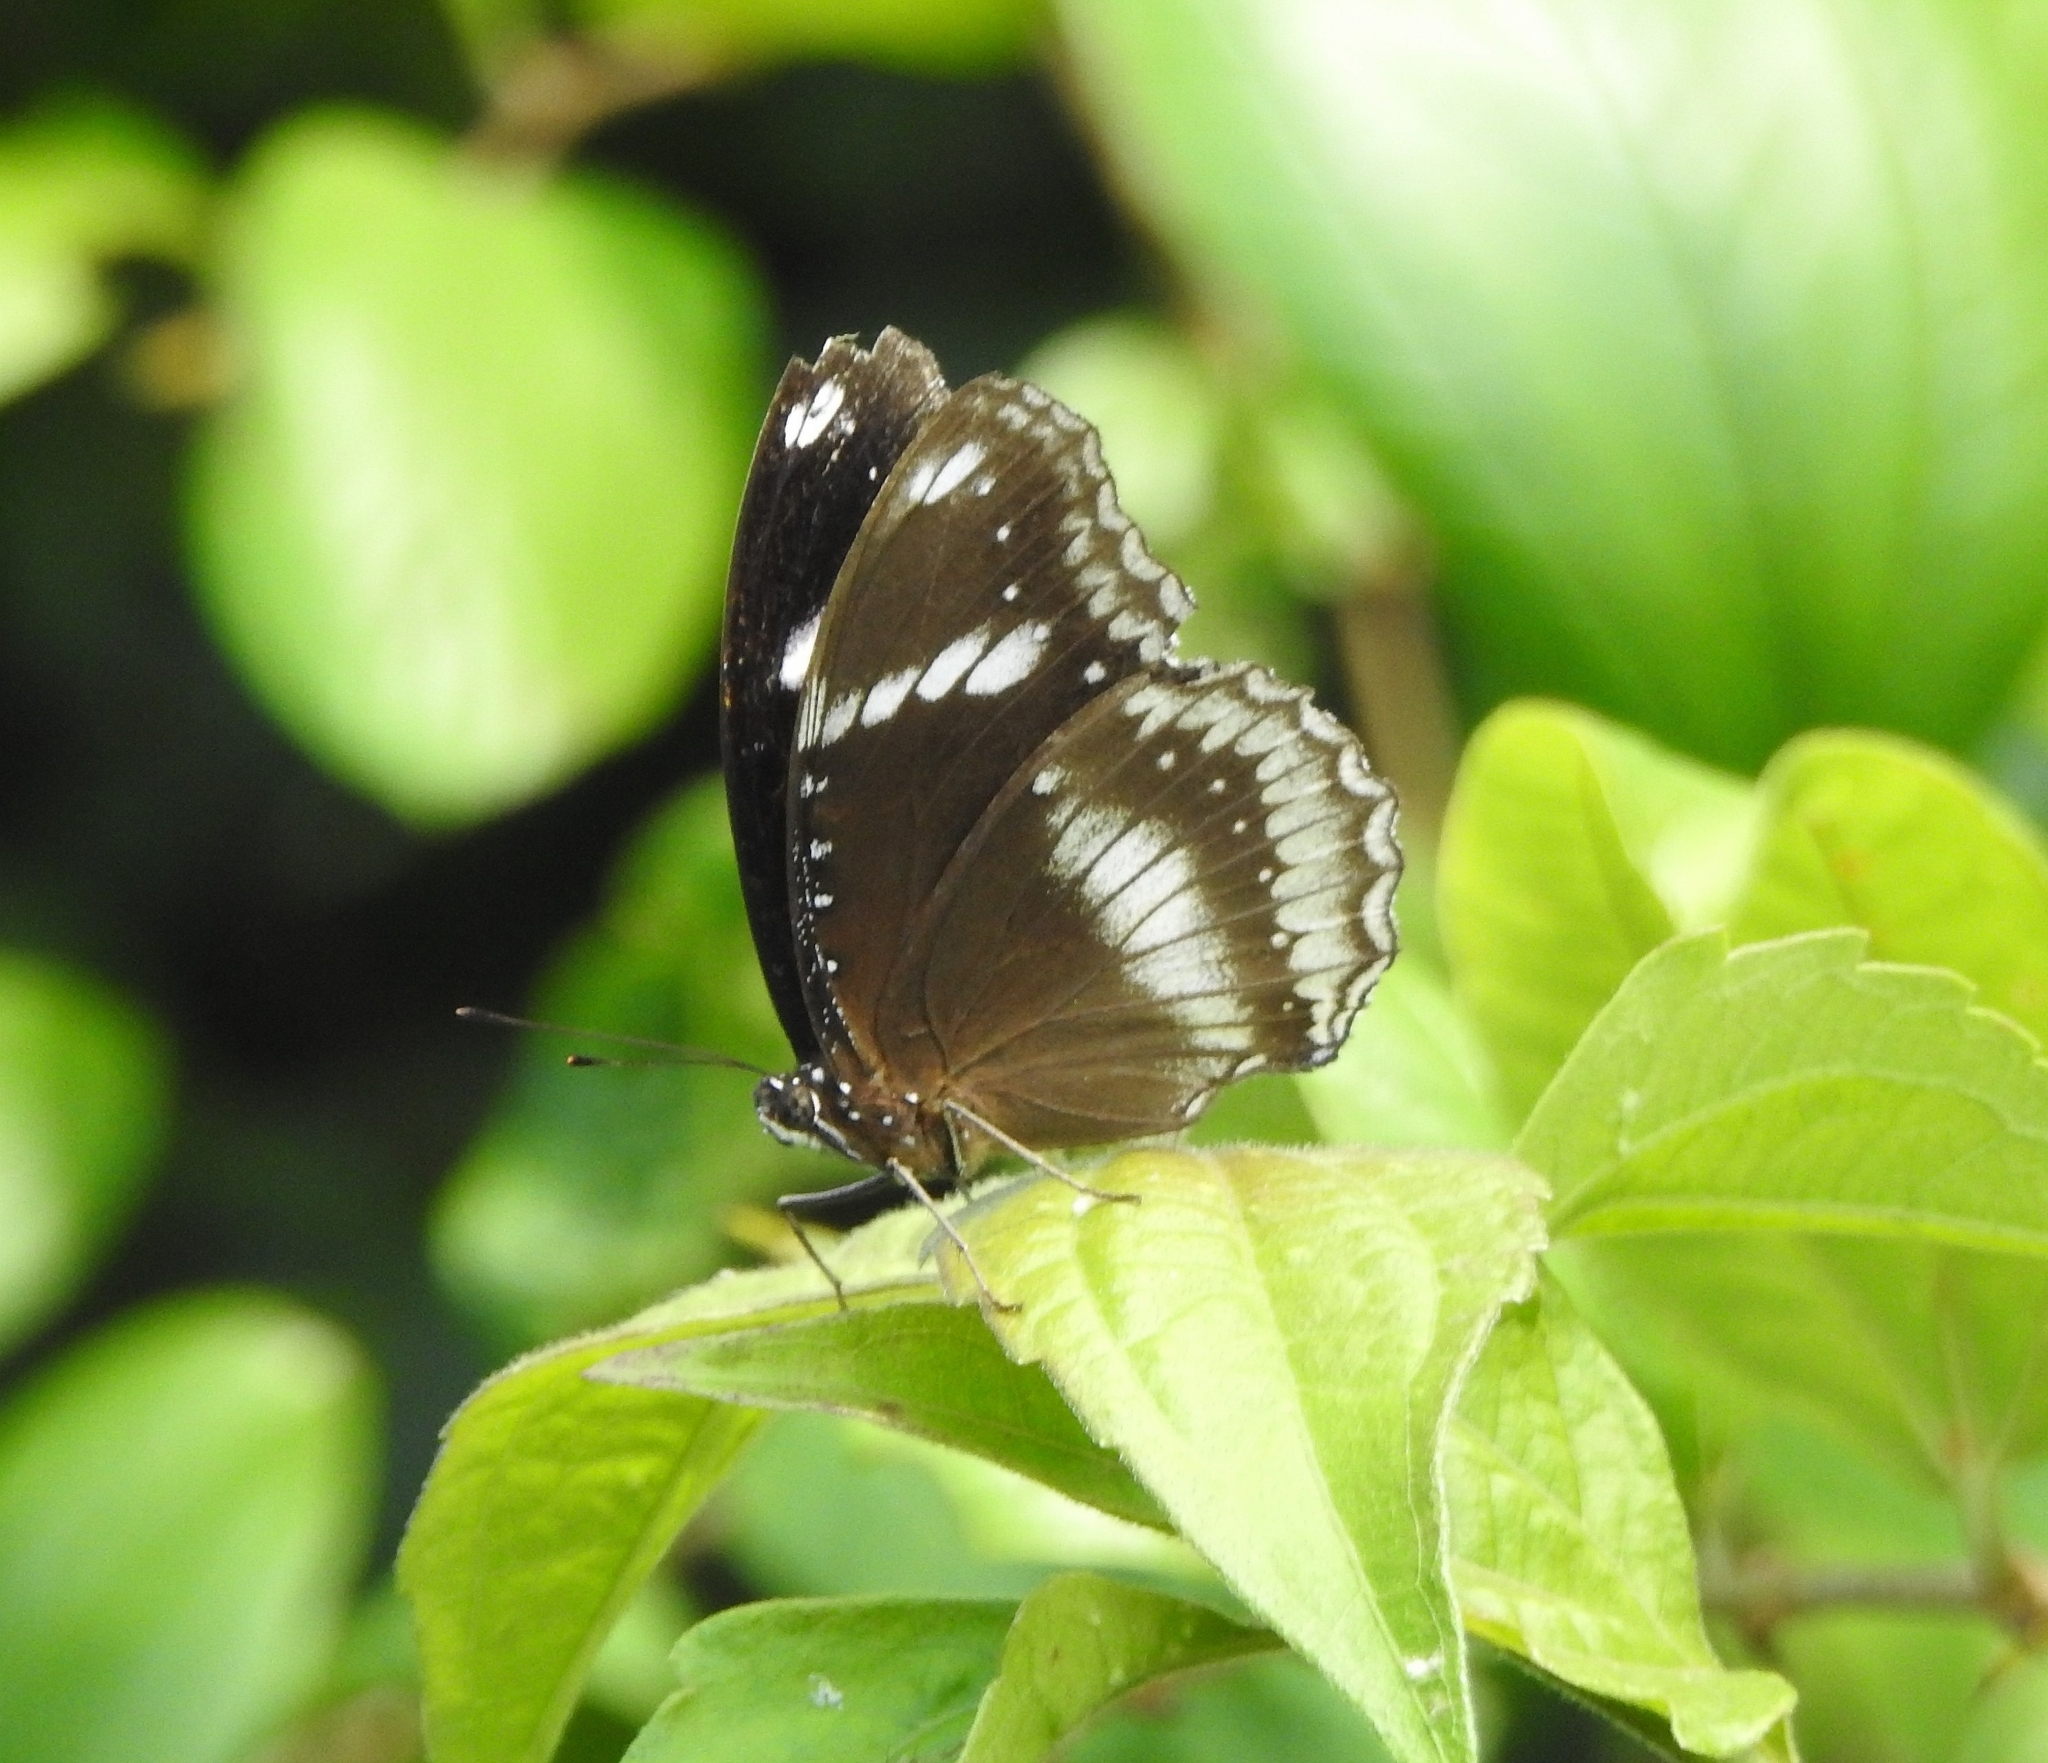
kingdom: Animalia
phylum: Arthropoda
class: Insecta
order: Lepidoptera
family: Nymphalidae
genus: Hypolimnas
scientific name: Hypolimnas bolina
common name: Great eggfly
